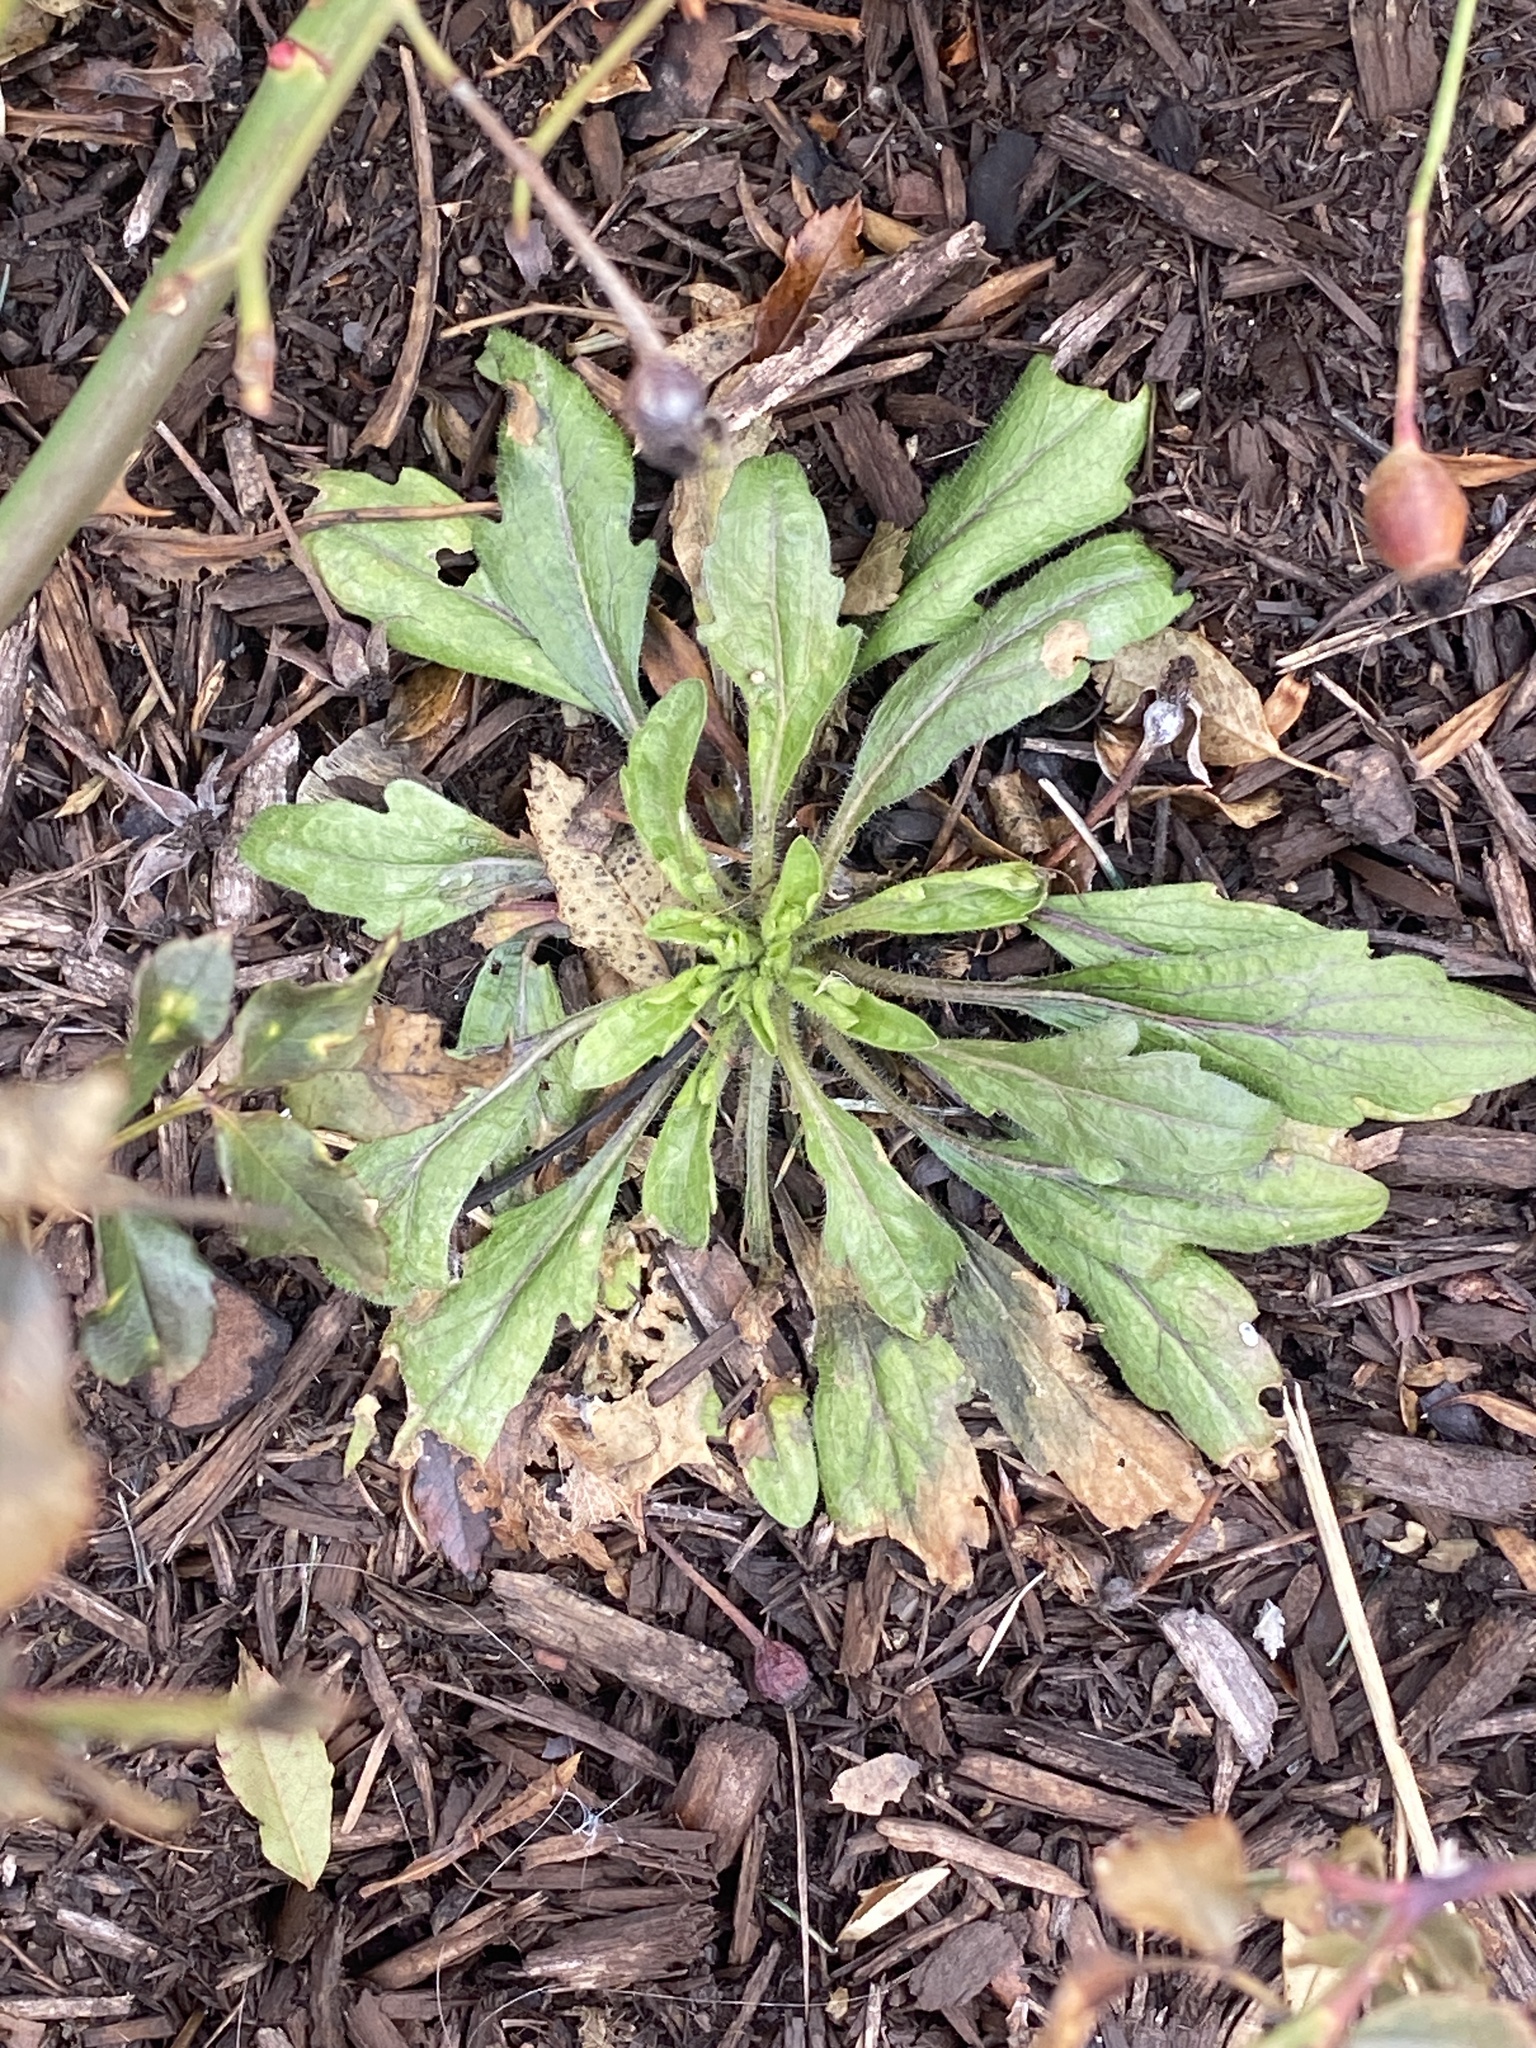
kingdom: Plantae
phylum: Tracheophyta
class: Magnoliopsida
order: Asterales
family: Asteraceae
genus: Erigeron
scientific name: Erigeron canadensis
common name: Canadian fleabane
